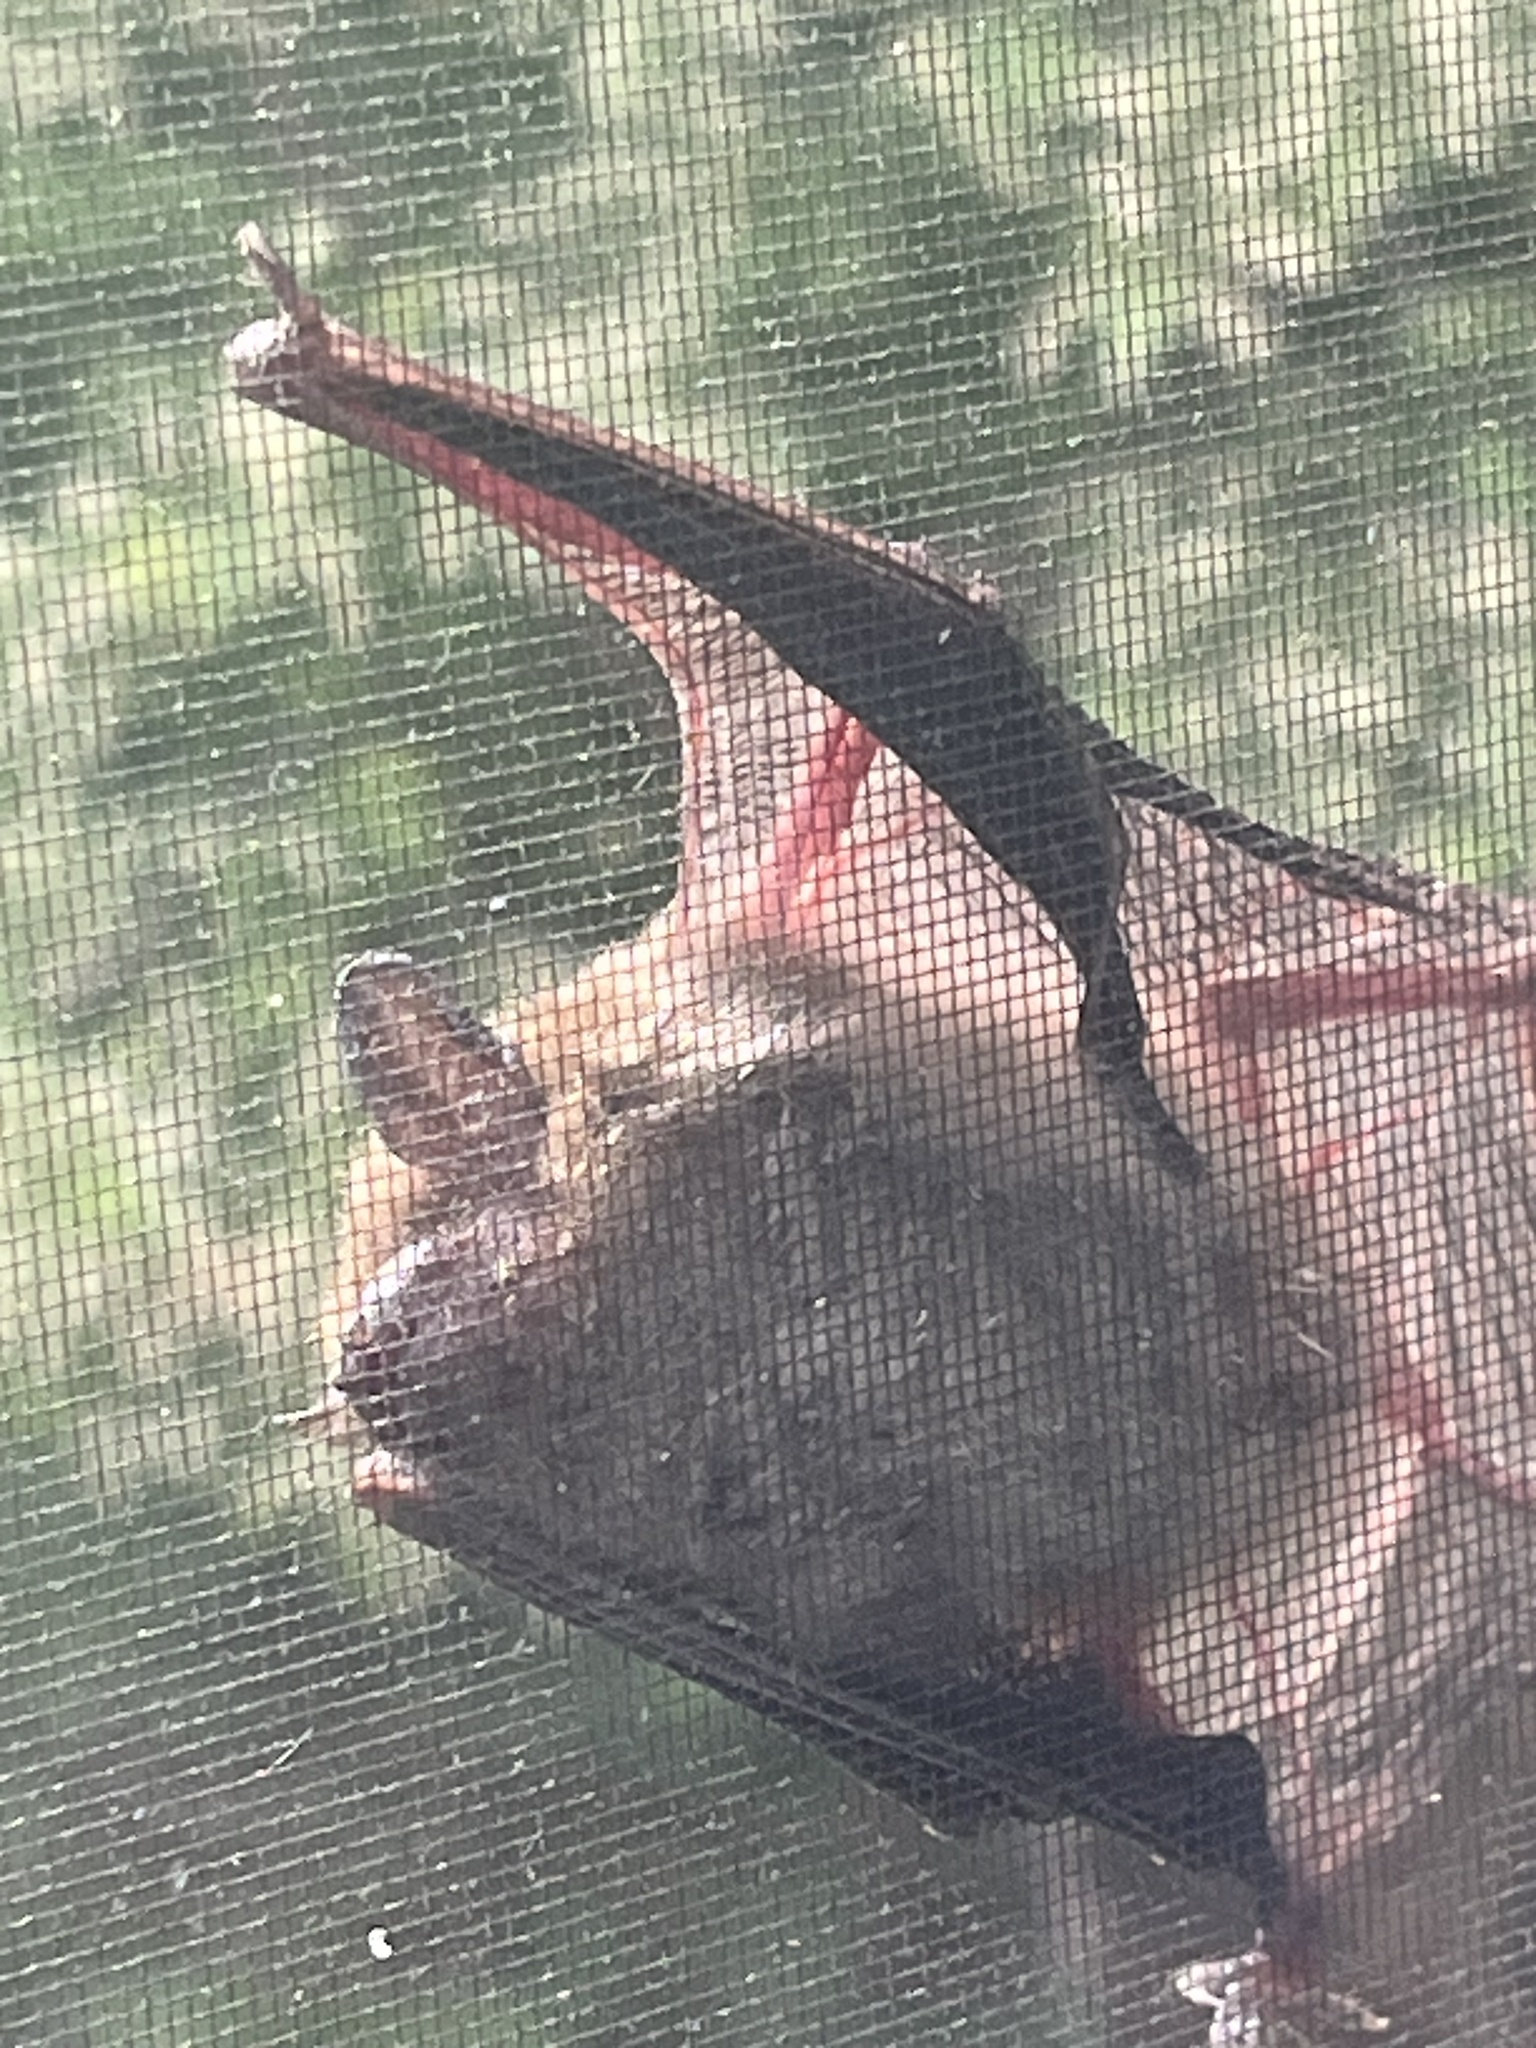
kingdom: Animalia
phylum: Chordata
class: Mammalia
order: Chiroptera
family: Vespertilionidae
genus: Eptesicus
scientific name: Eptesicus fuscus
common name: Big brown bat
